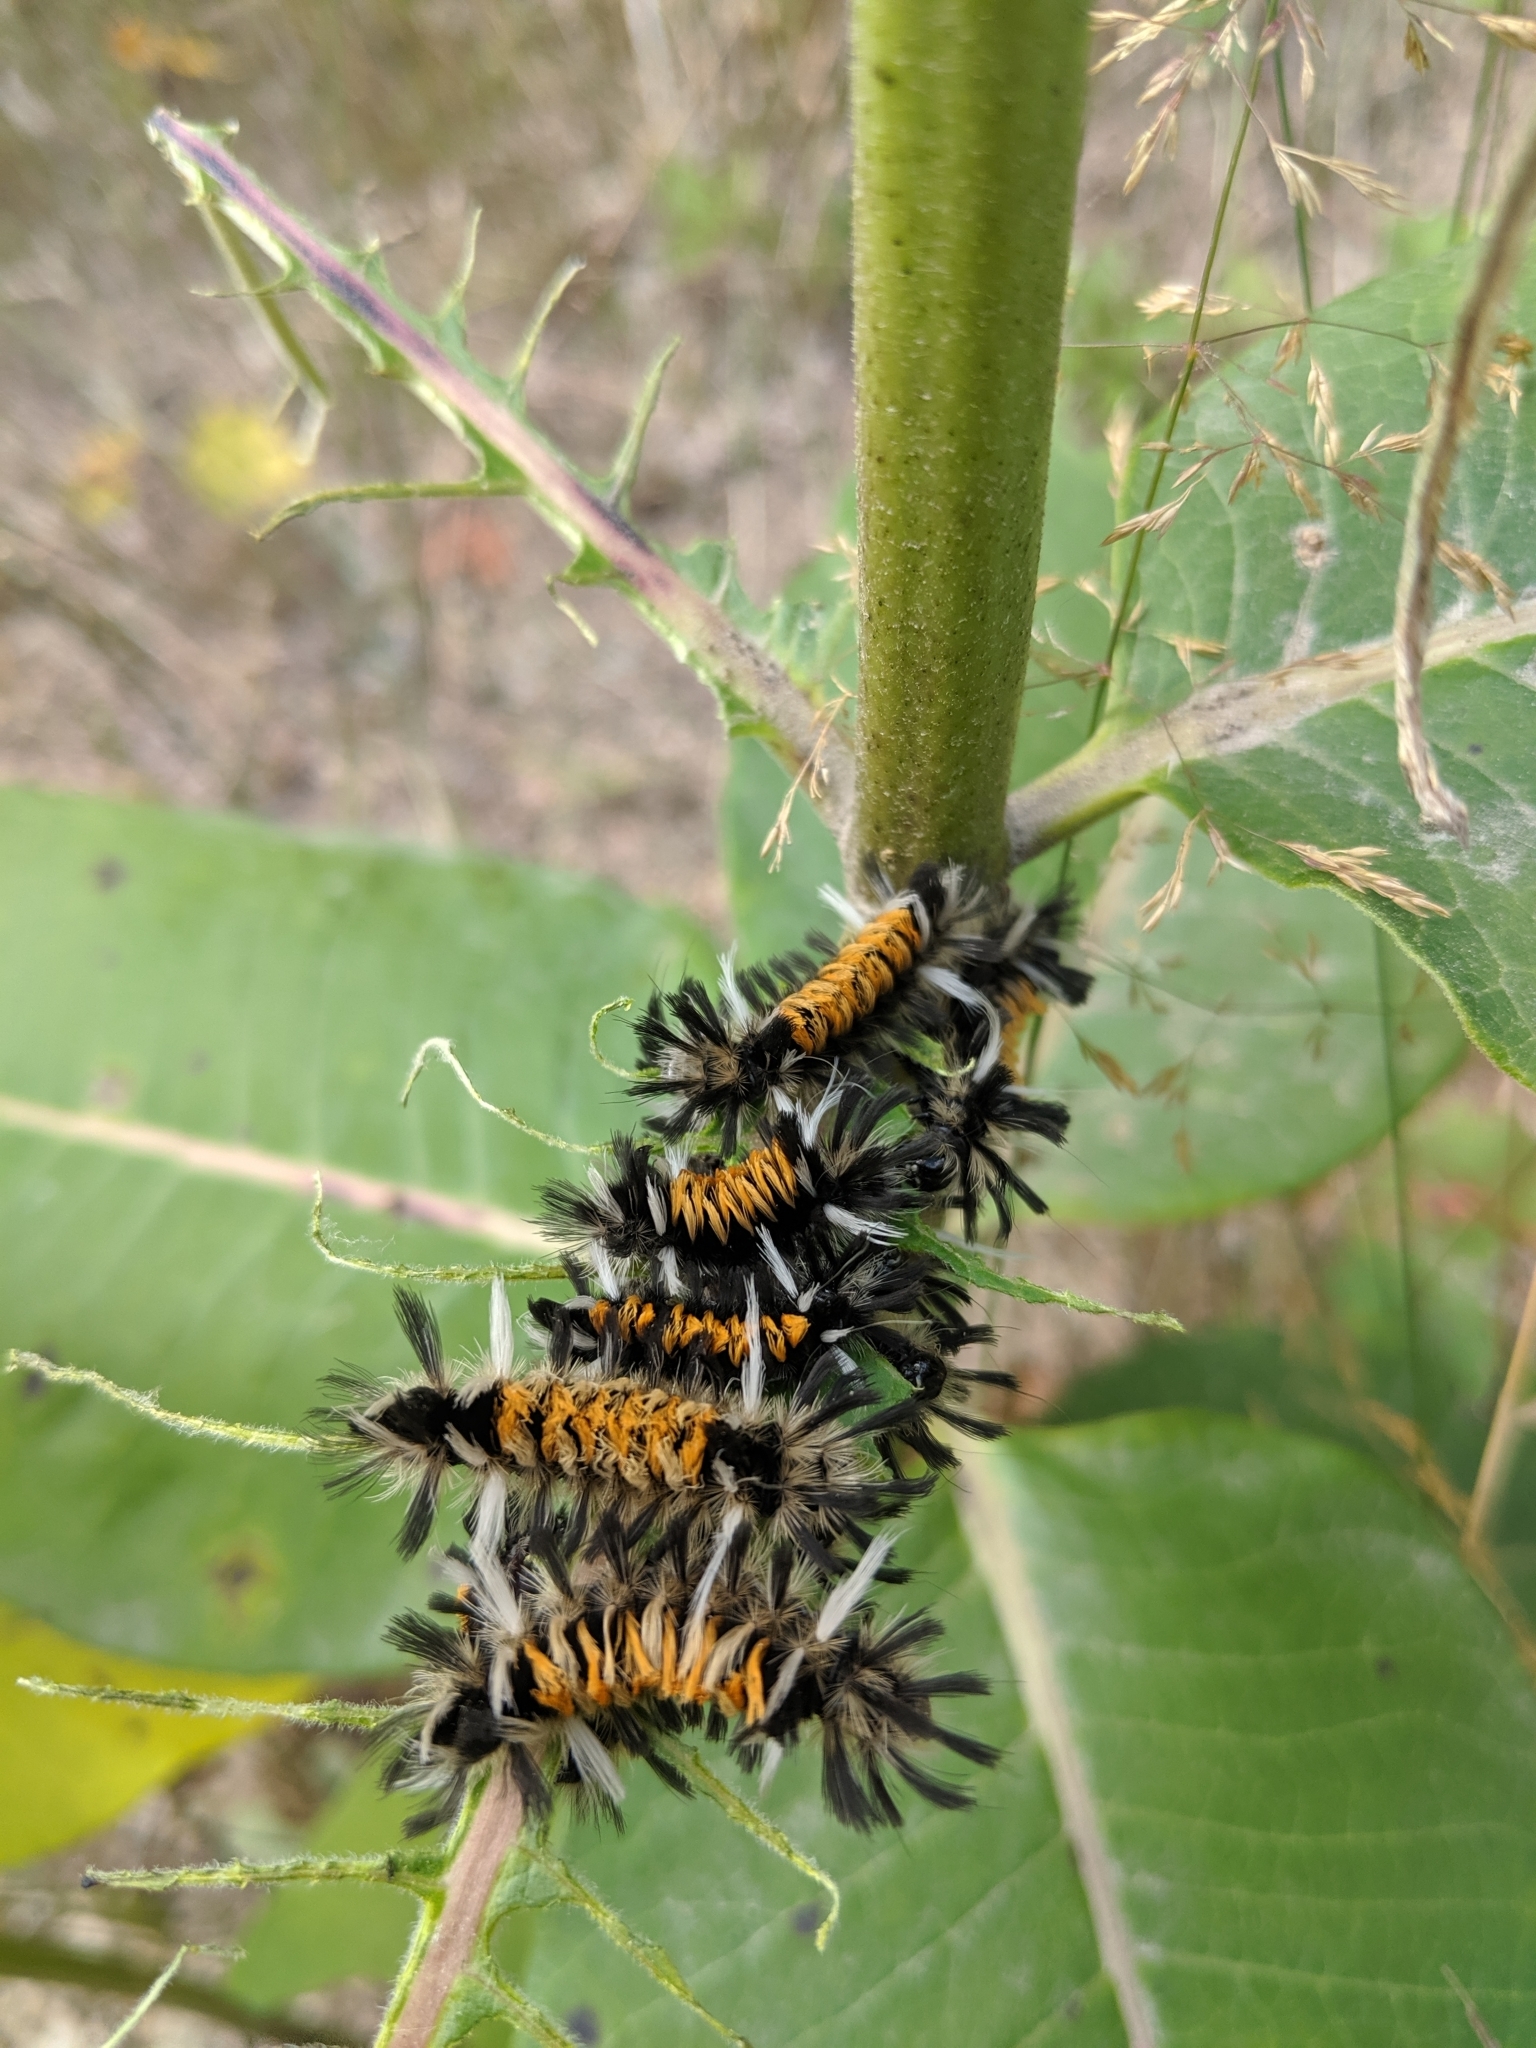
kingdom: Animalia
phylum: Arthropoda
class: Insecta
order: Lepidoptera
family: Erebidae
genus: Euchaetes
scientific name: Euchaetes egle
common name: Milkweed tussock moth
